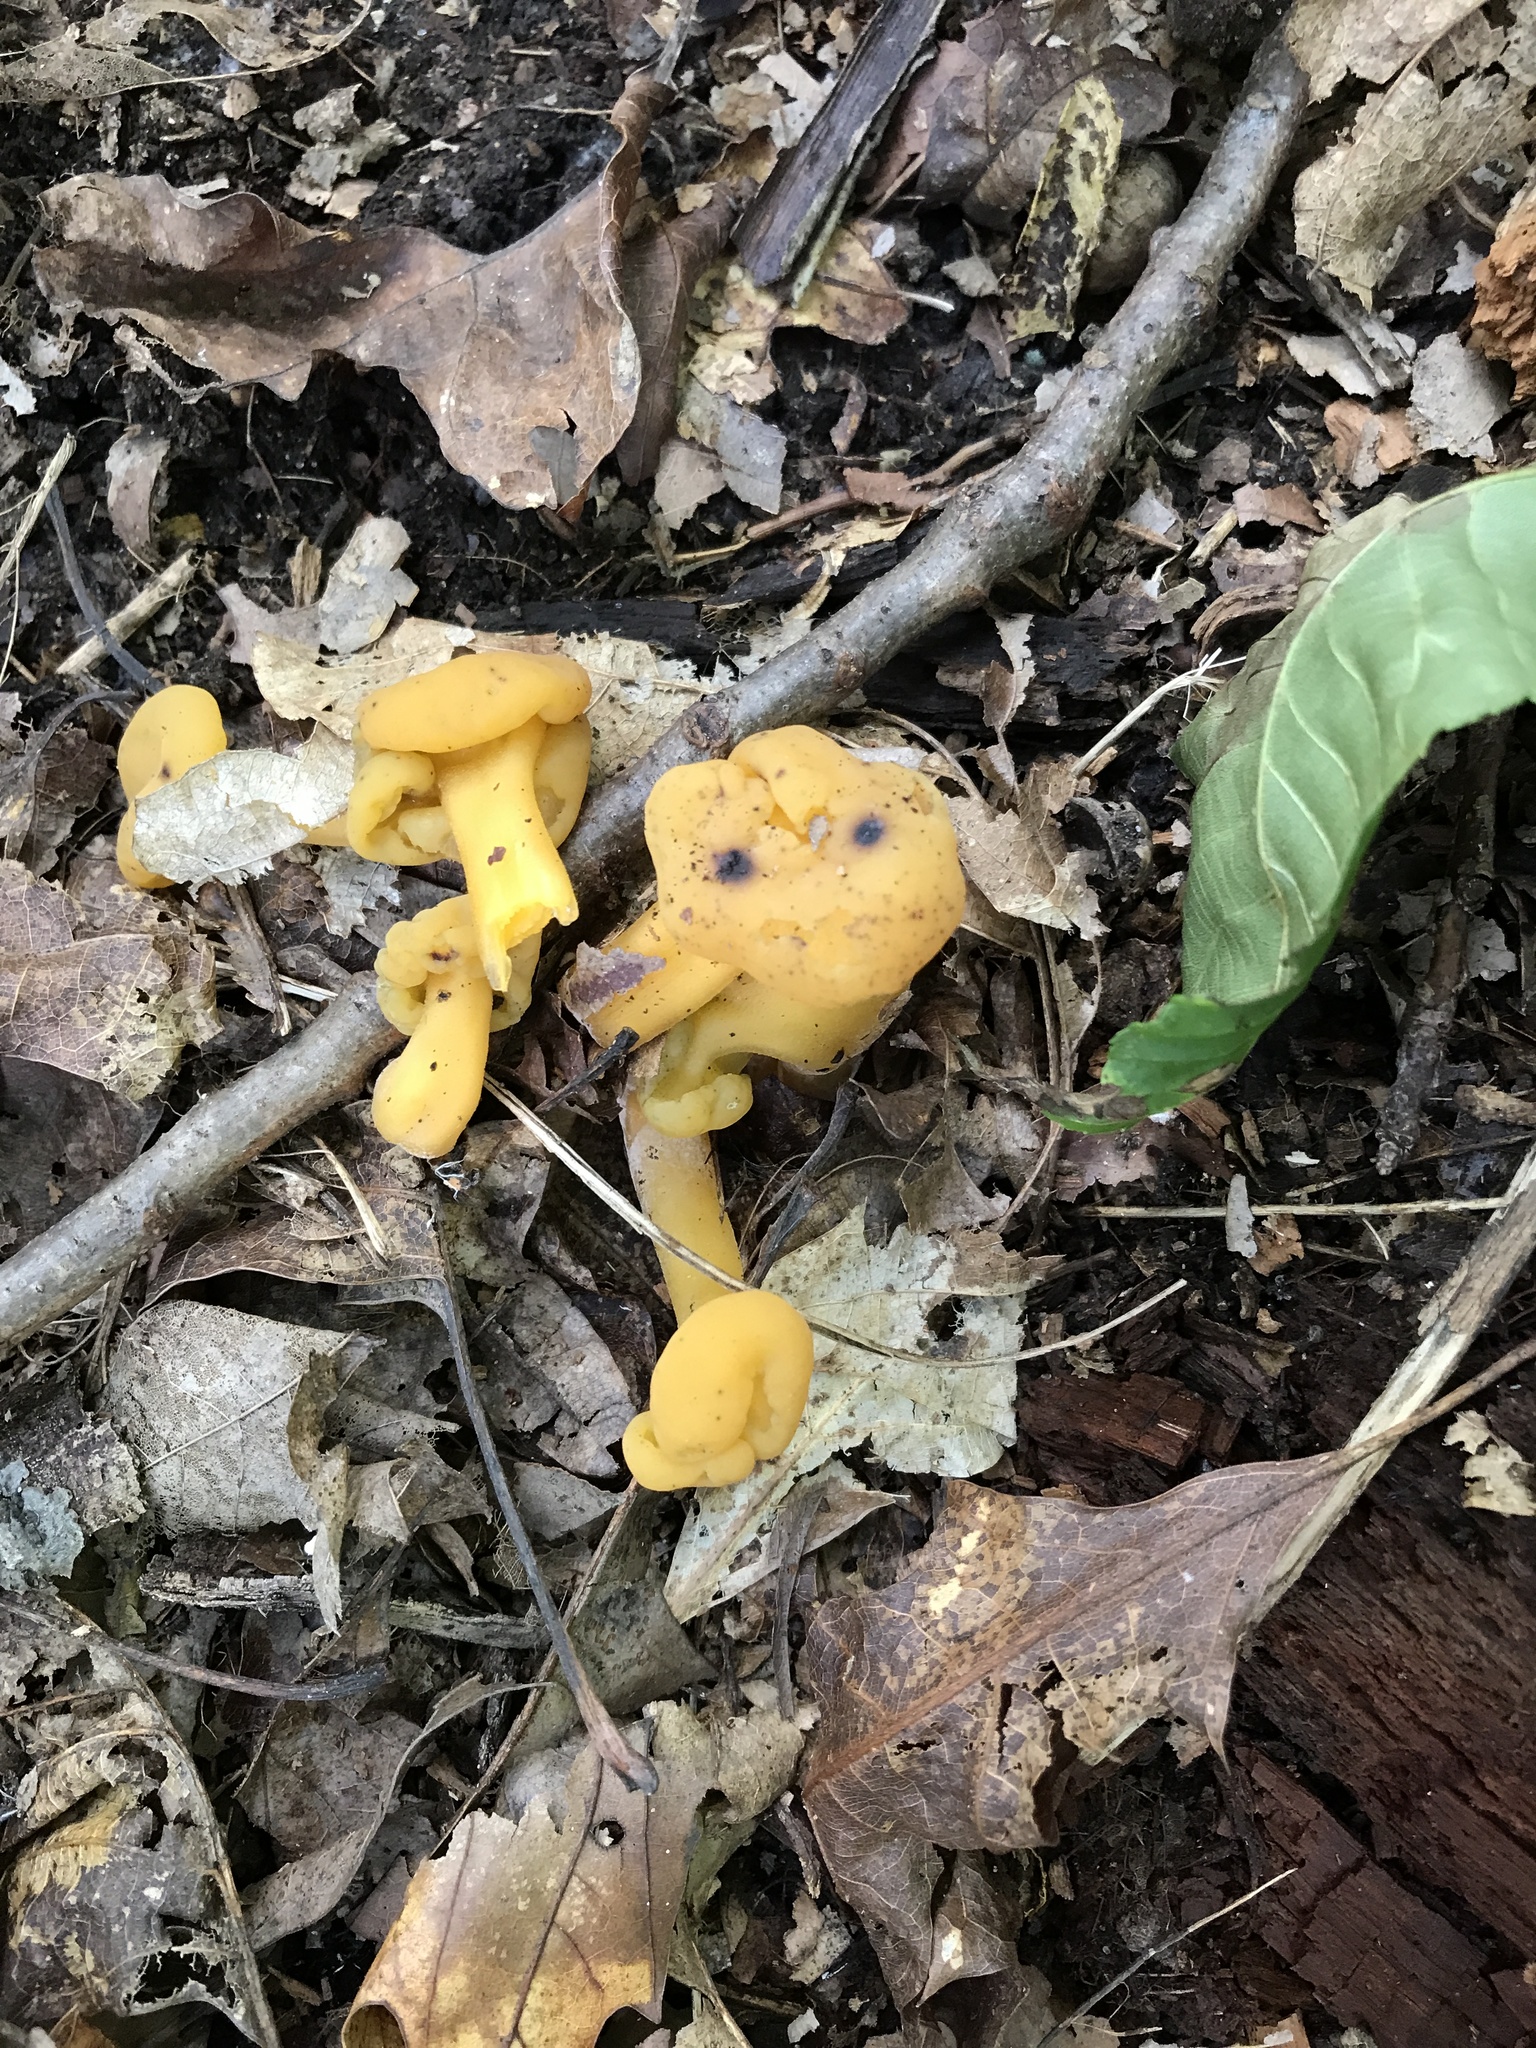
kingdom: Fungi
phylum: Ascomycota
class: Leotiomycetes
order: Leotiales
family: Leotiaceae
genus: Leotia
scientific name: Leotia lubrica
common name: Jellybaby
